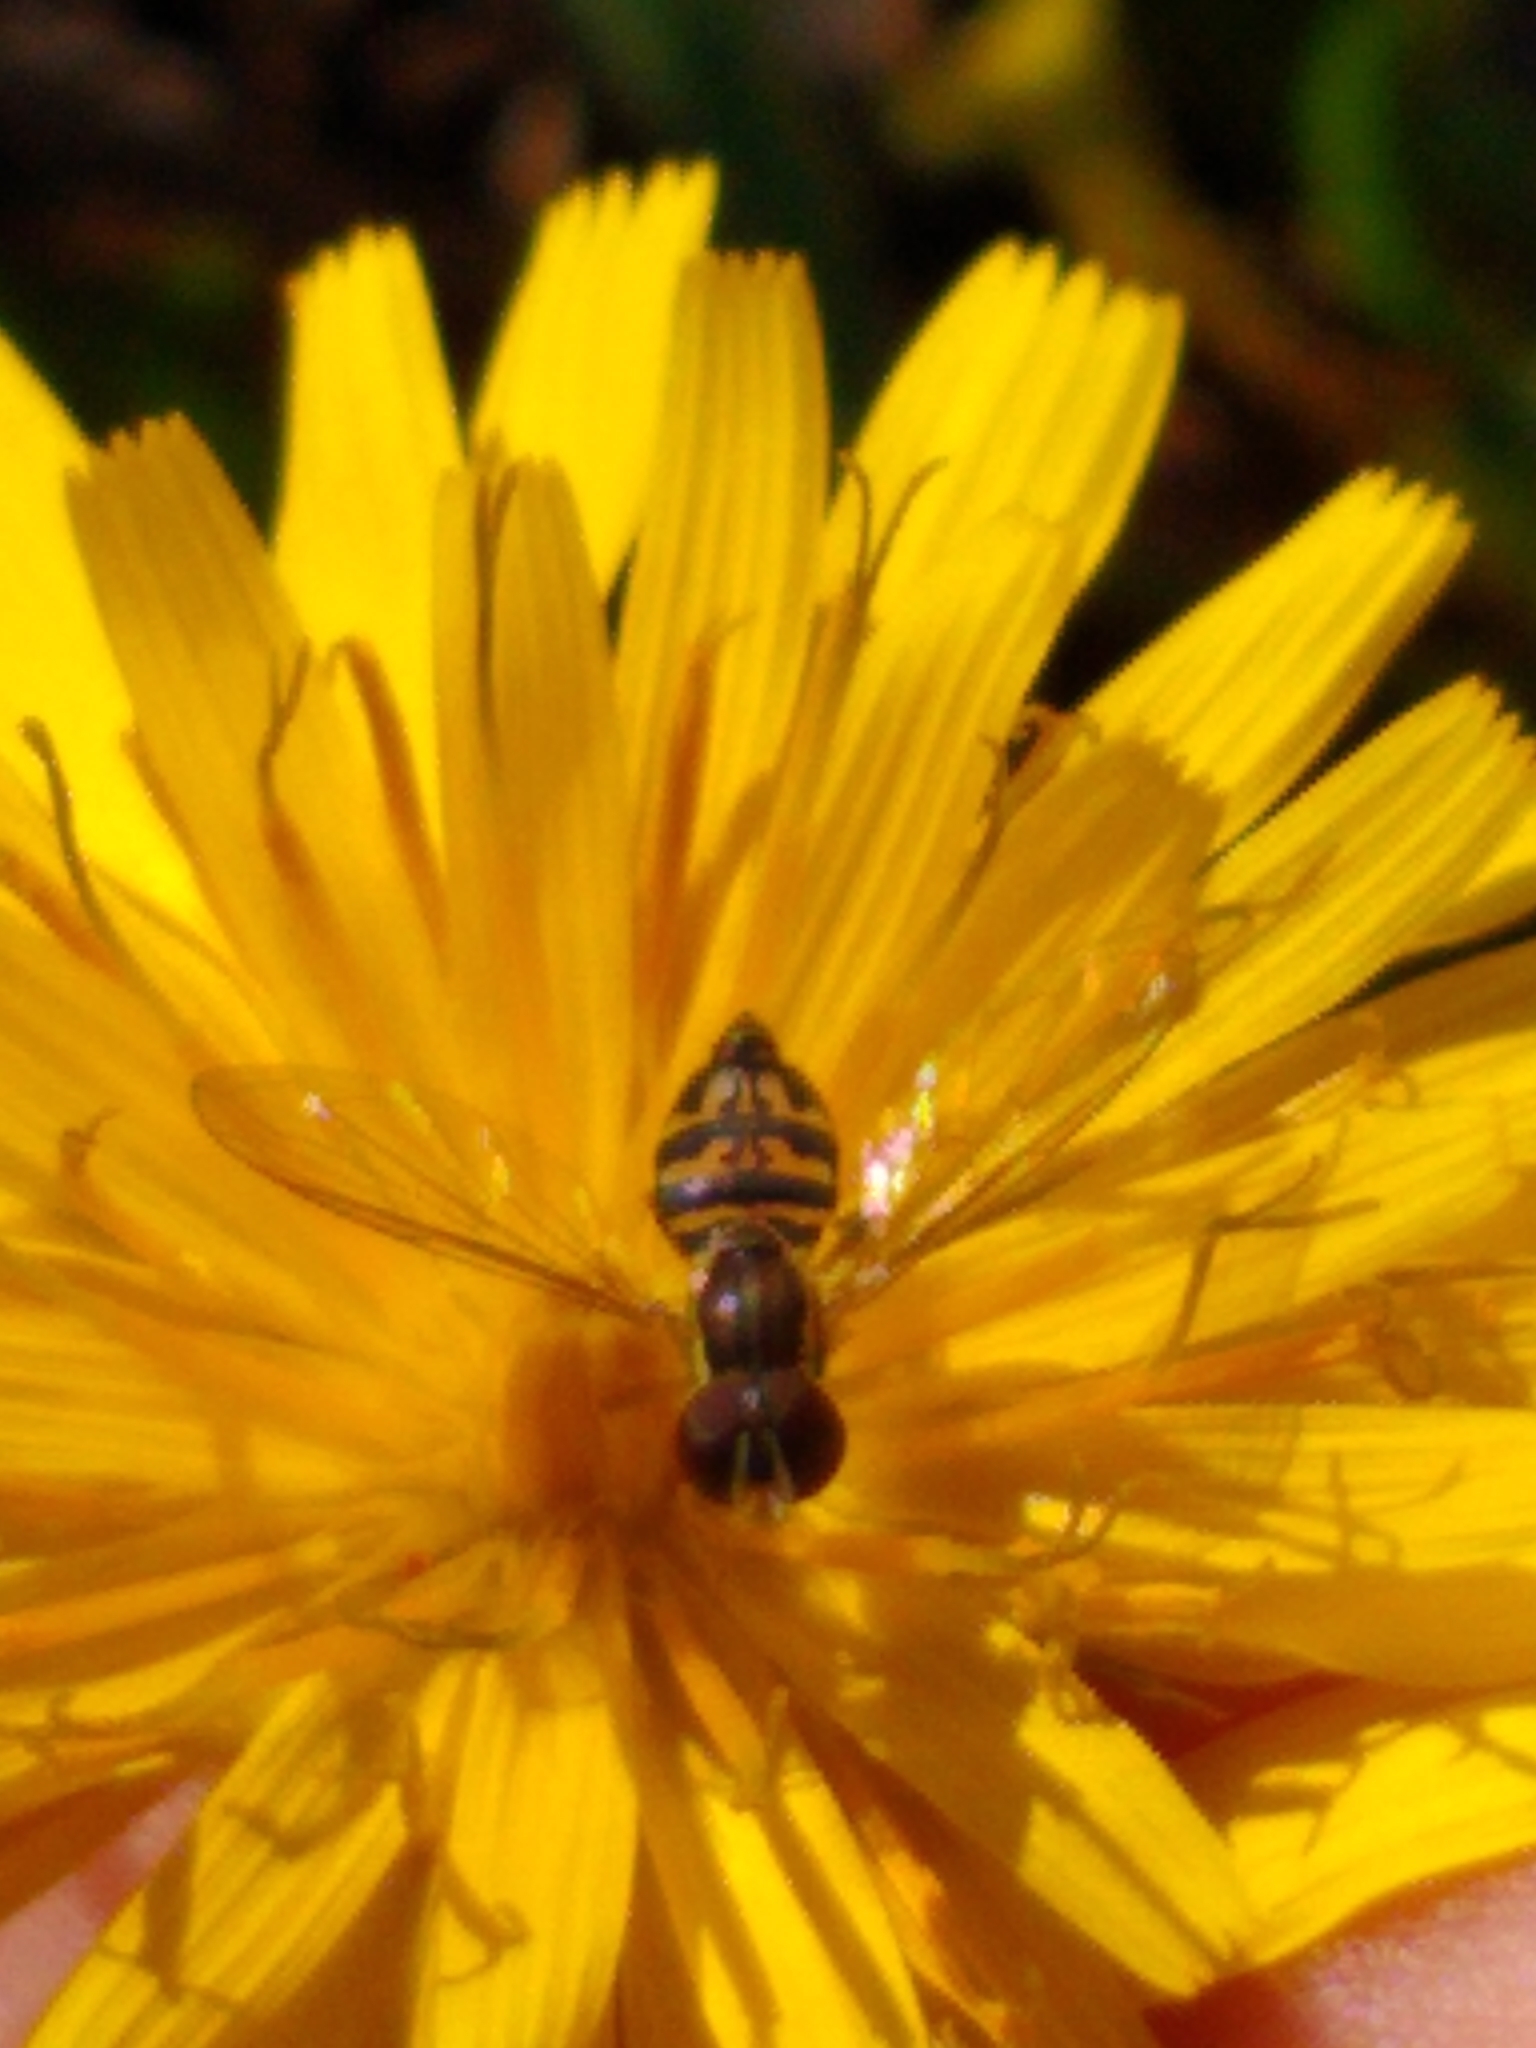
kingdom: Animalia
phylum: Arthropoda
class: Insecta
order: Diptera
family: Syrphidae
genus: Toxomerus
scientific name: Toxomerus geminatus
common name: Eastern calligrapher
